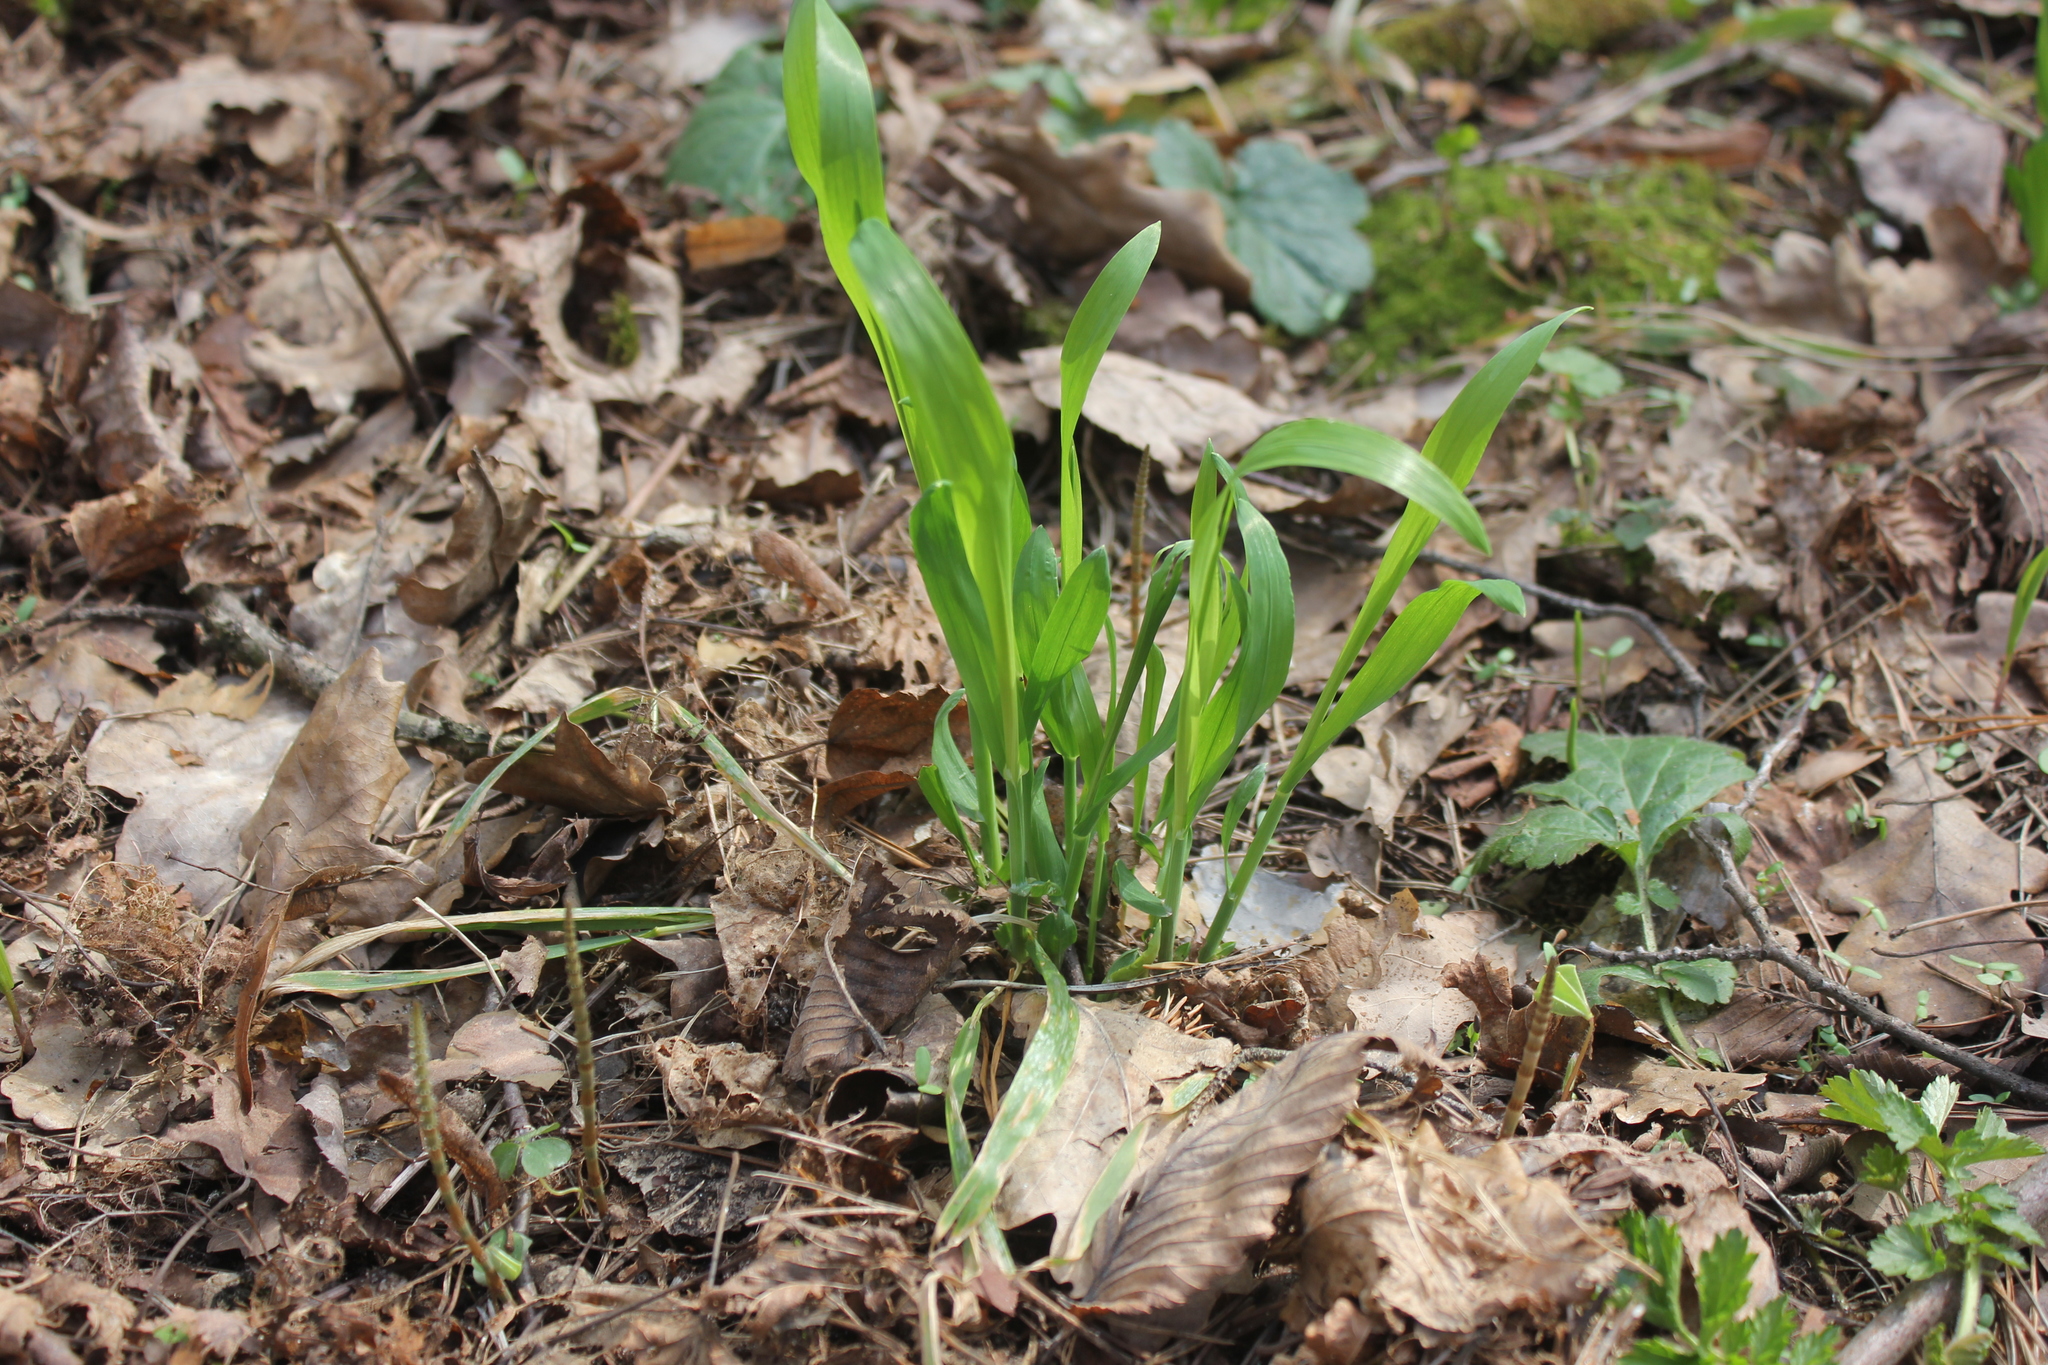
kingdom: Plantae
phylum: Tracheophyta
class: Liliopsida
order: Poales
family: Poaceae
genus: Milium
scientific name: Milium effusum
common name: Wood millet
